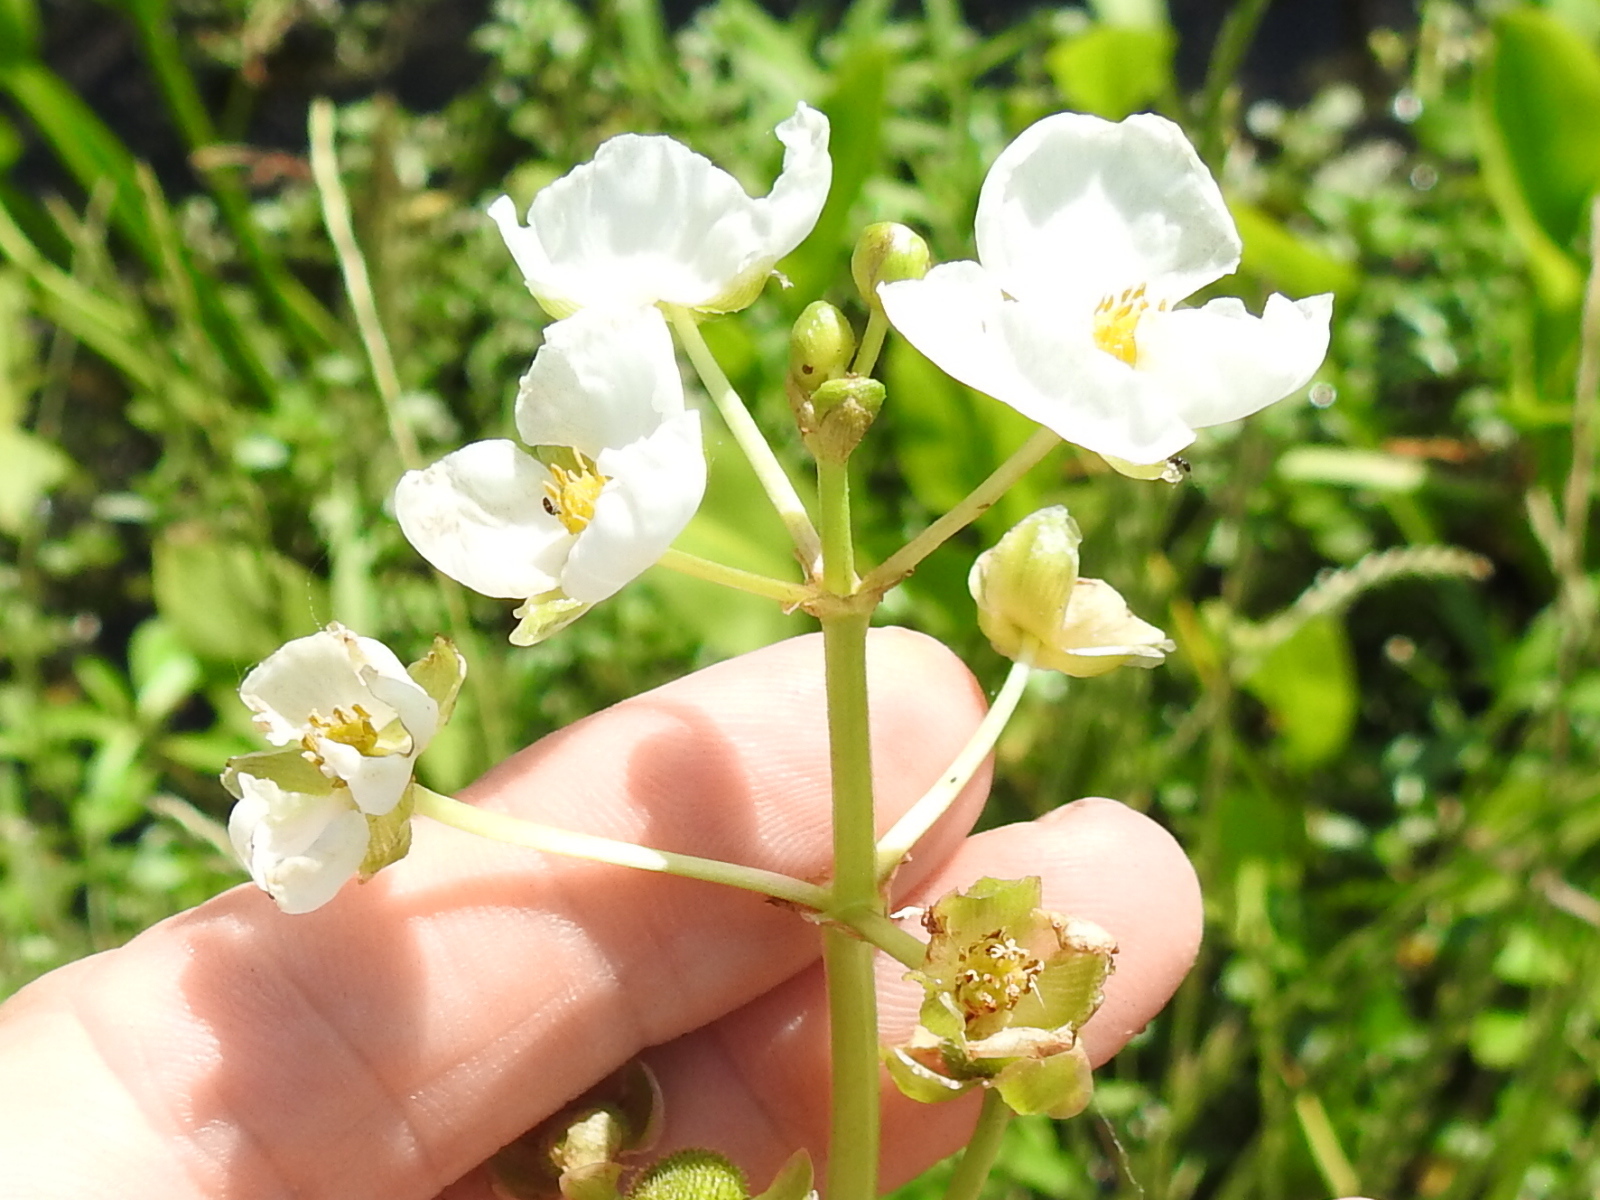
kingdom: Plantae
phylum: Tracheophyta
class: Liliopsida
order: Alismatales
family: Alismataceae
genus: Sagittaria
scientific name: Sagittaria platyphylla
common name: Broad-leaf arrowhead
